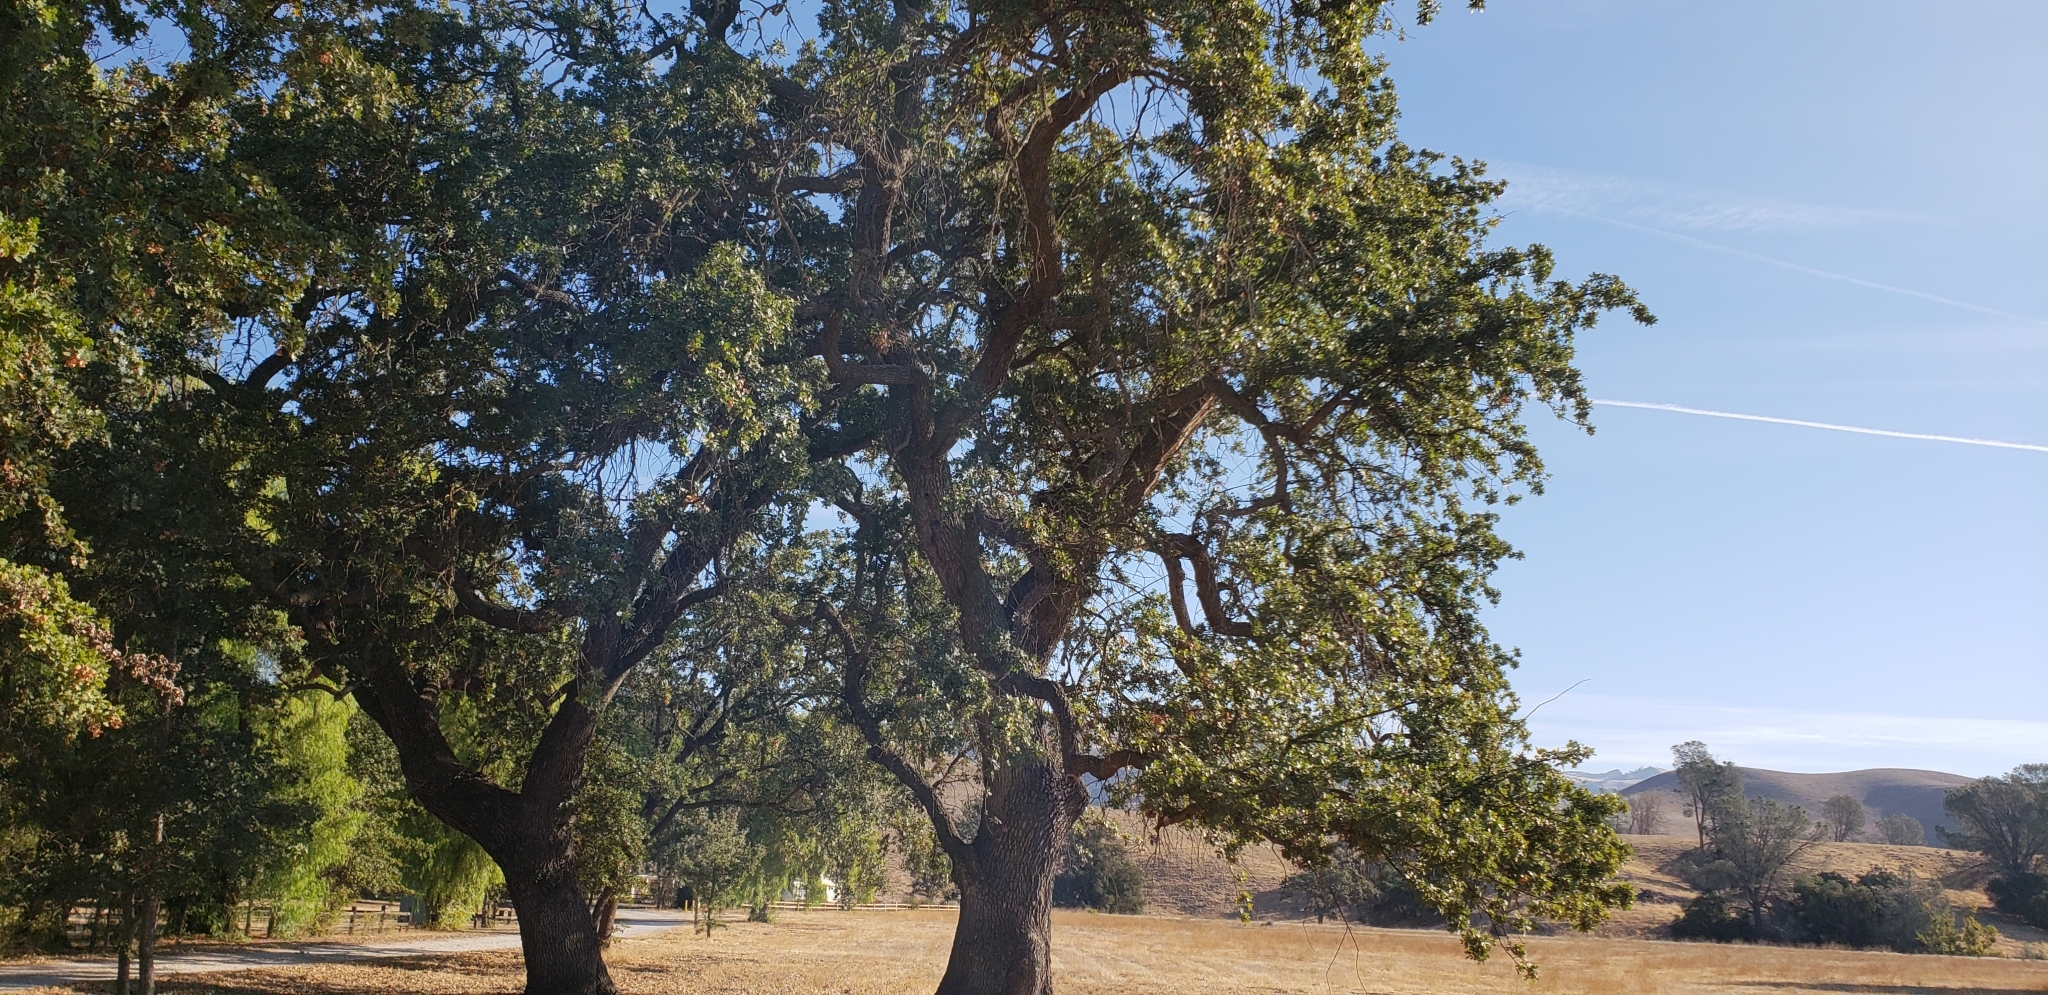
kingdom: Plantae
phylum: Tracheophyta
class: Magnoliopsida
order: Fagales
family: Fagaceae
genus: Quercus
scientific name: Quercus lobata
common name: Valley oak
